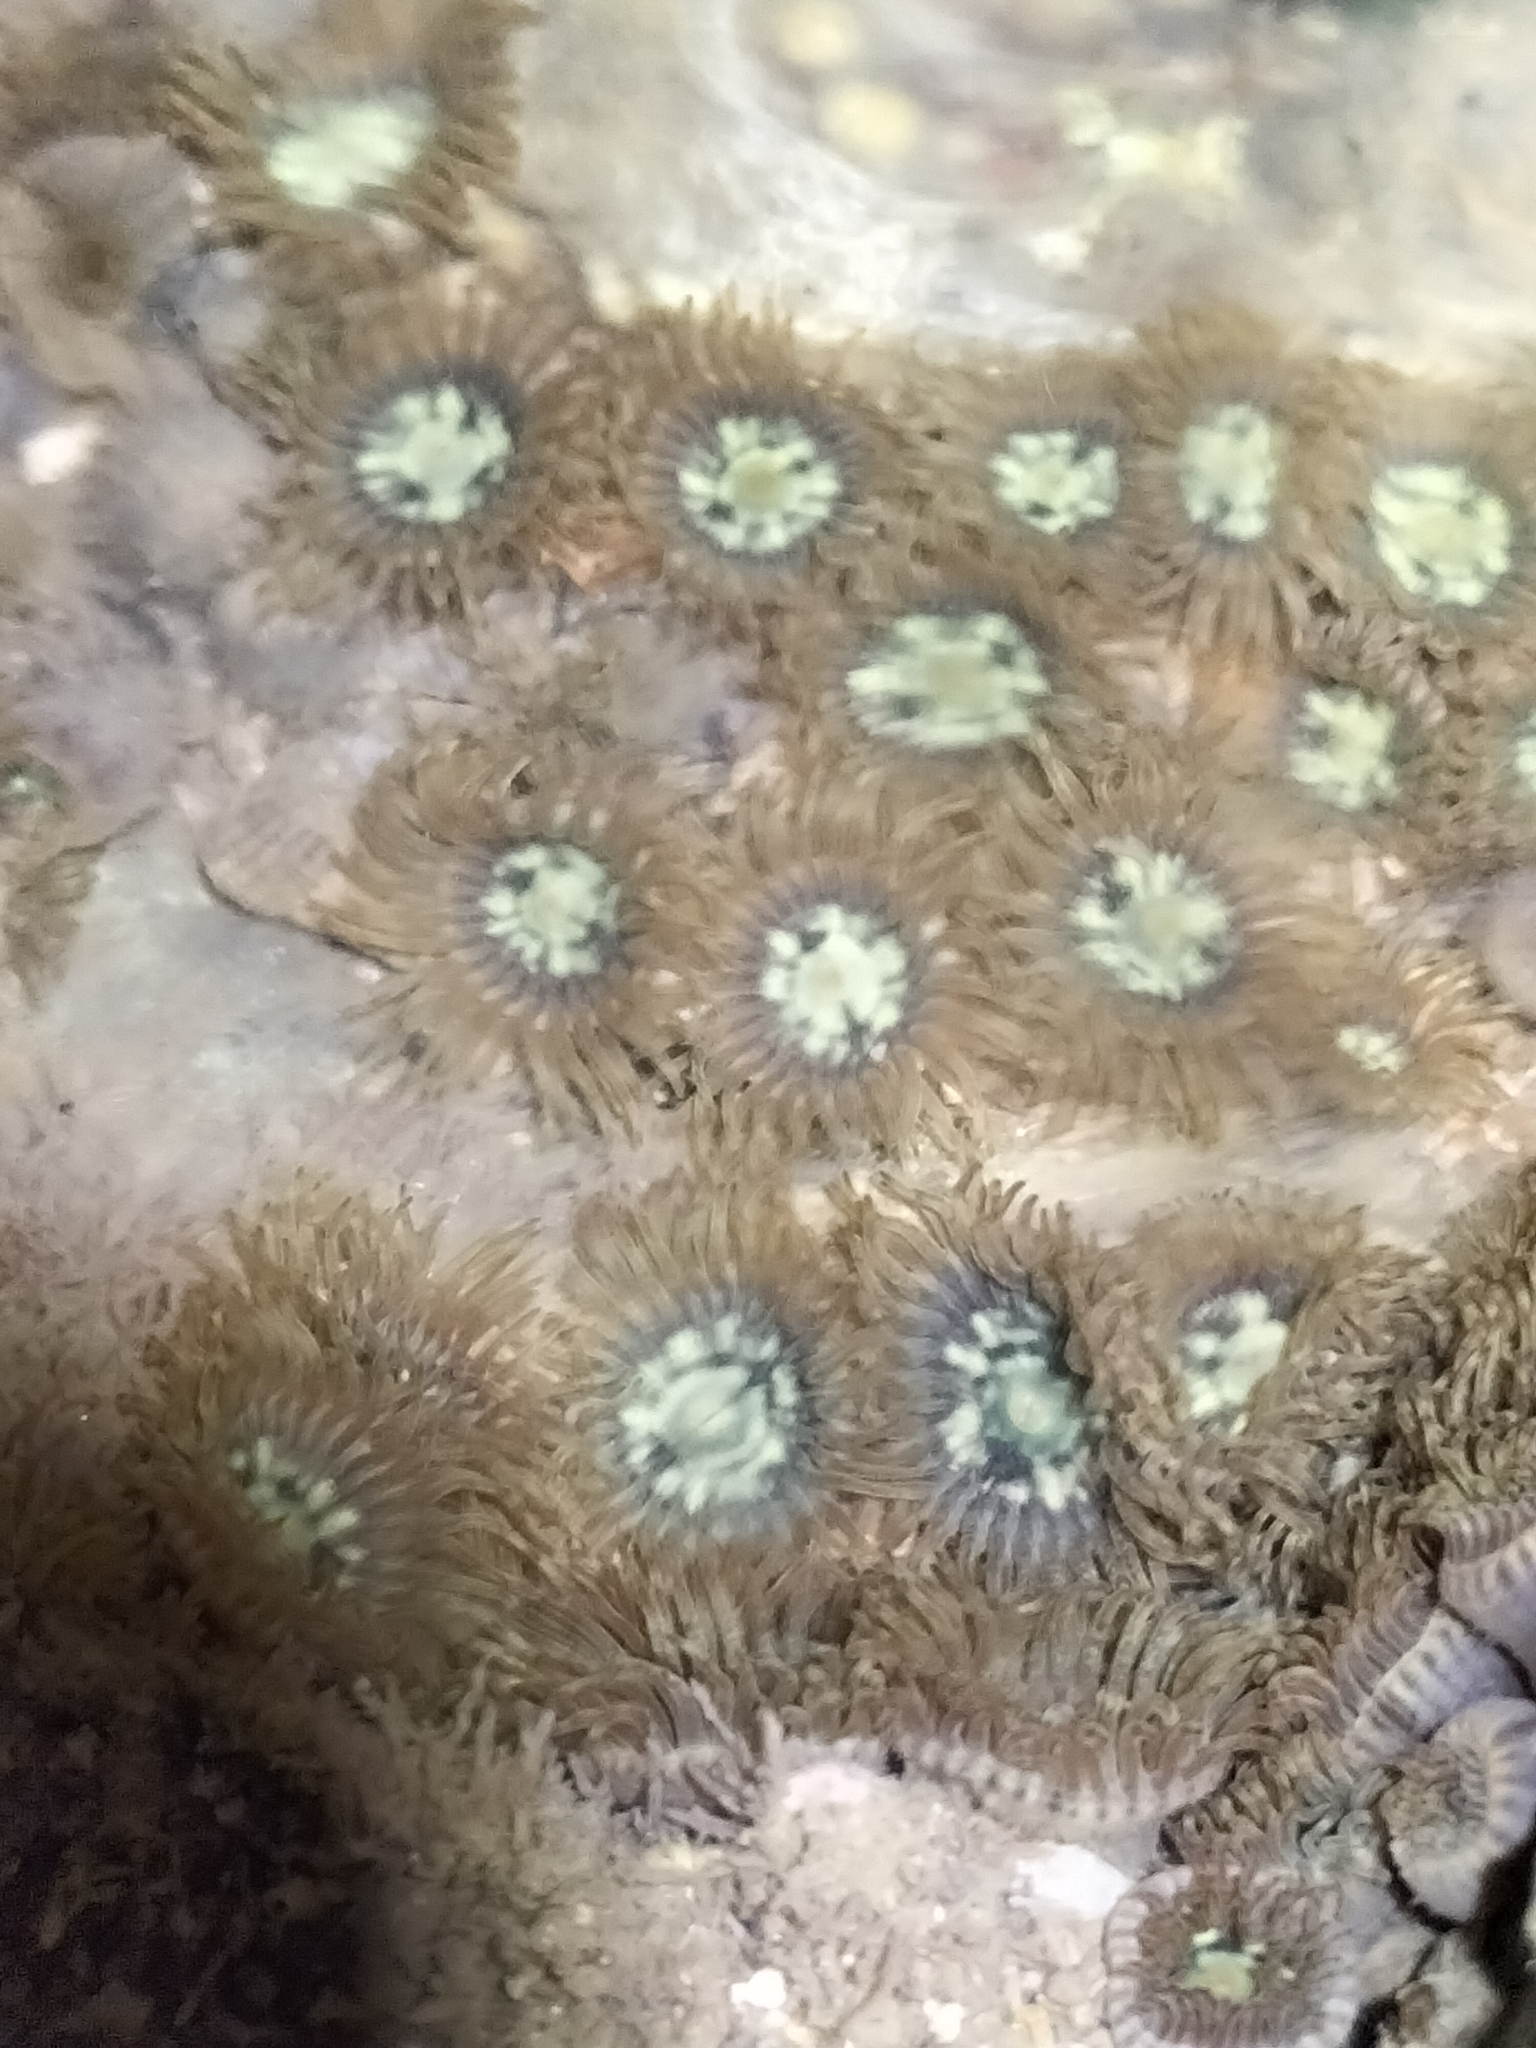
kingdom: Animalia
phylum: Cnidaria
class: Anthozoa
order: Zoantharia
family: Zoanthidae
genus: Zoanthus
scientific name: Zoanthus sansibaricus
